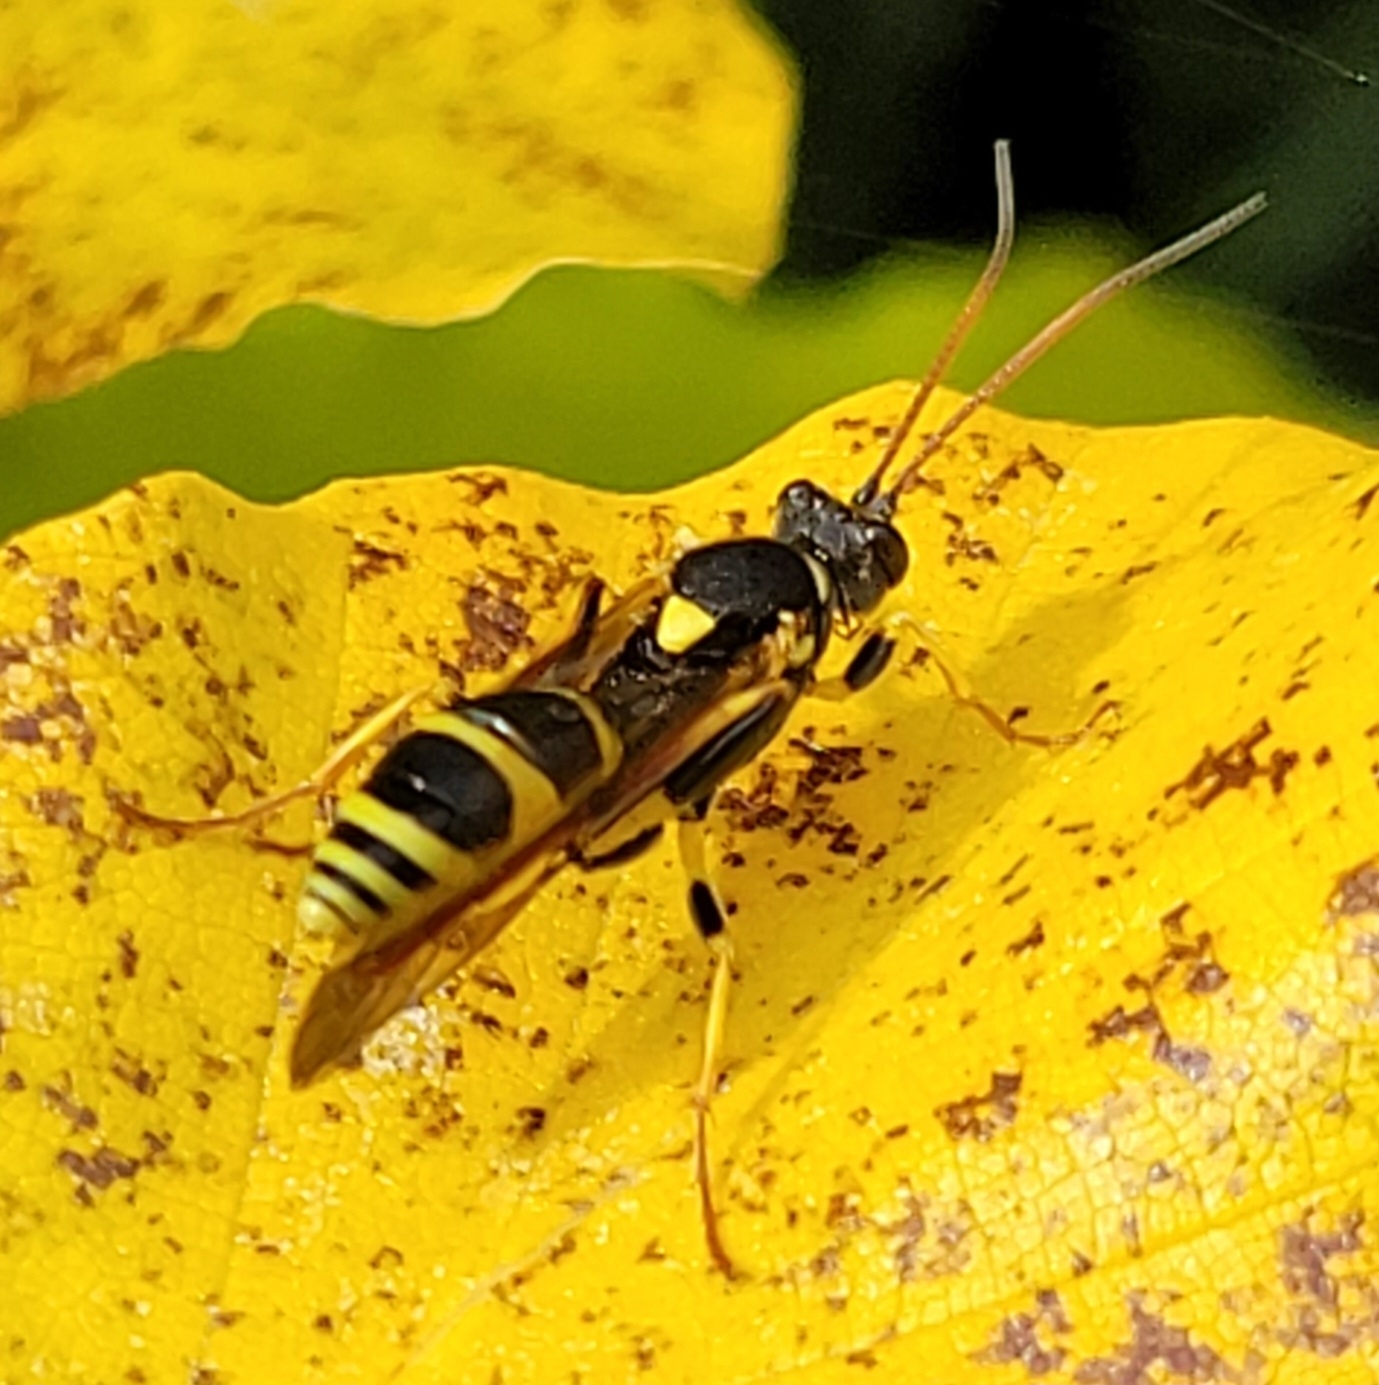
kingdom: Animalia
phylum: Arthropoda
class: Insecta
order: Hymenoptera
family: Ichneumonidae
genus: Amblyteles
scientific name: Amblyteles armatorius
